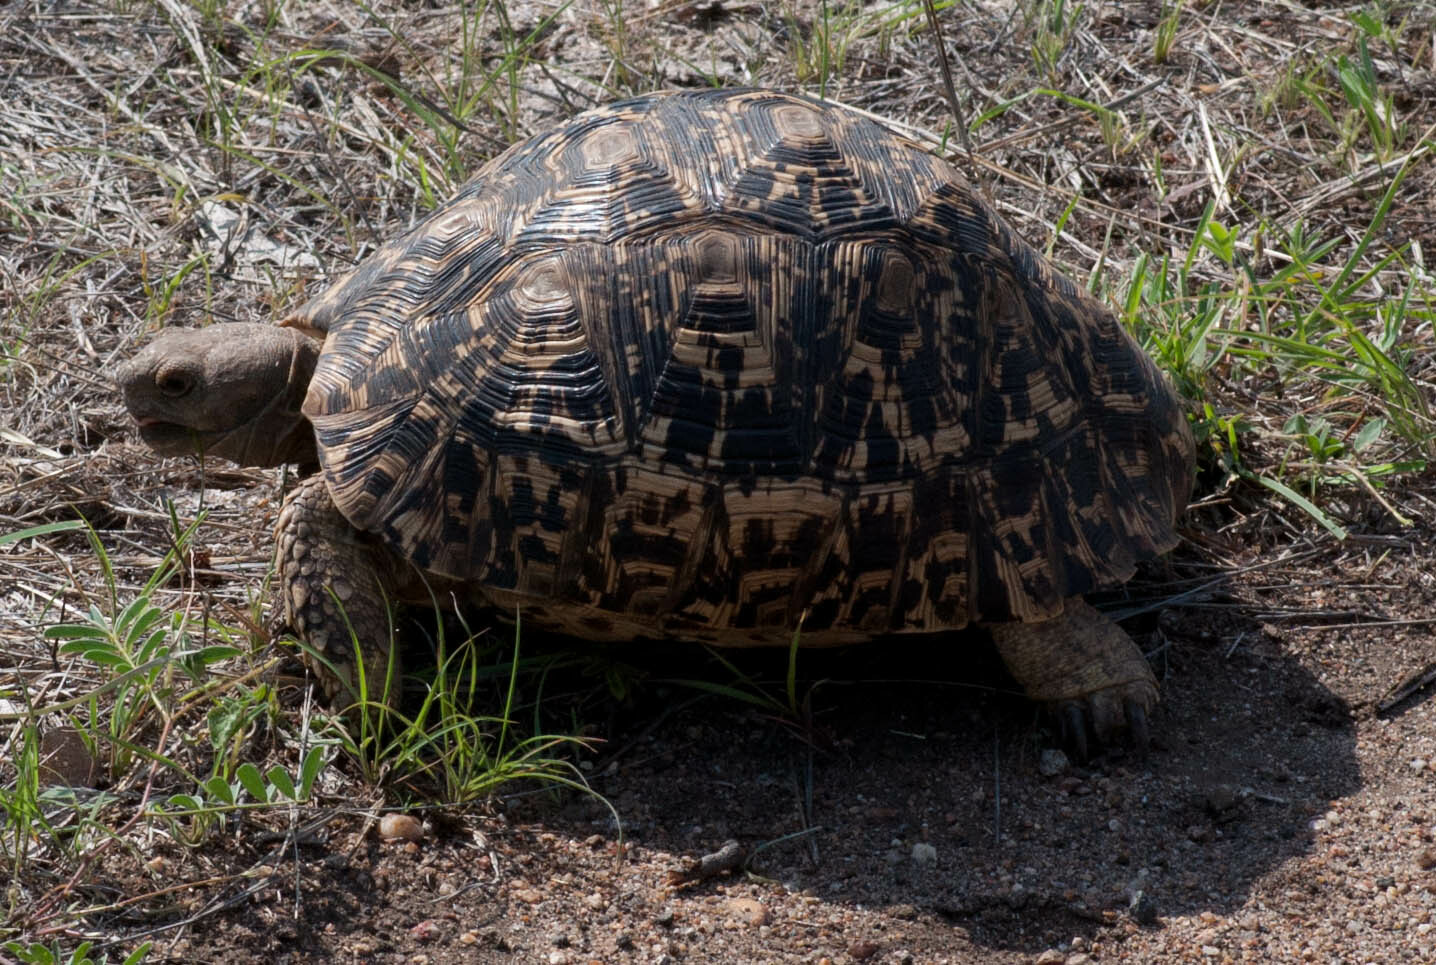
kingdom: Animalia
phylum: Chordata
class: Testudines
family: Testudinidae
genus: Stigmochelys
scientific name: Stigmochelys pardalis
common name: Leopard tortoise
